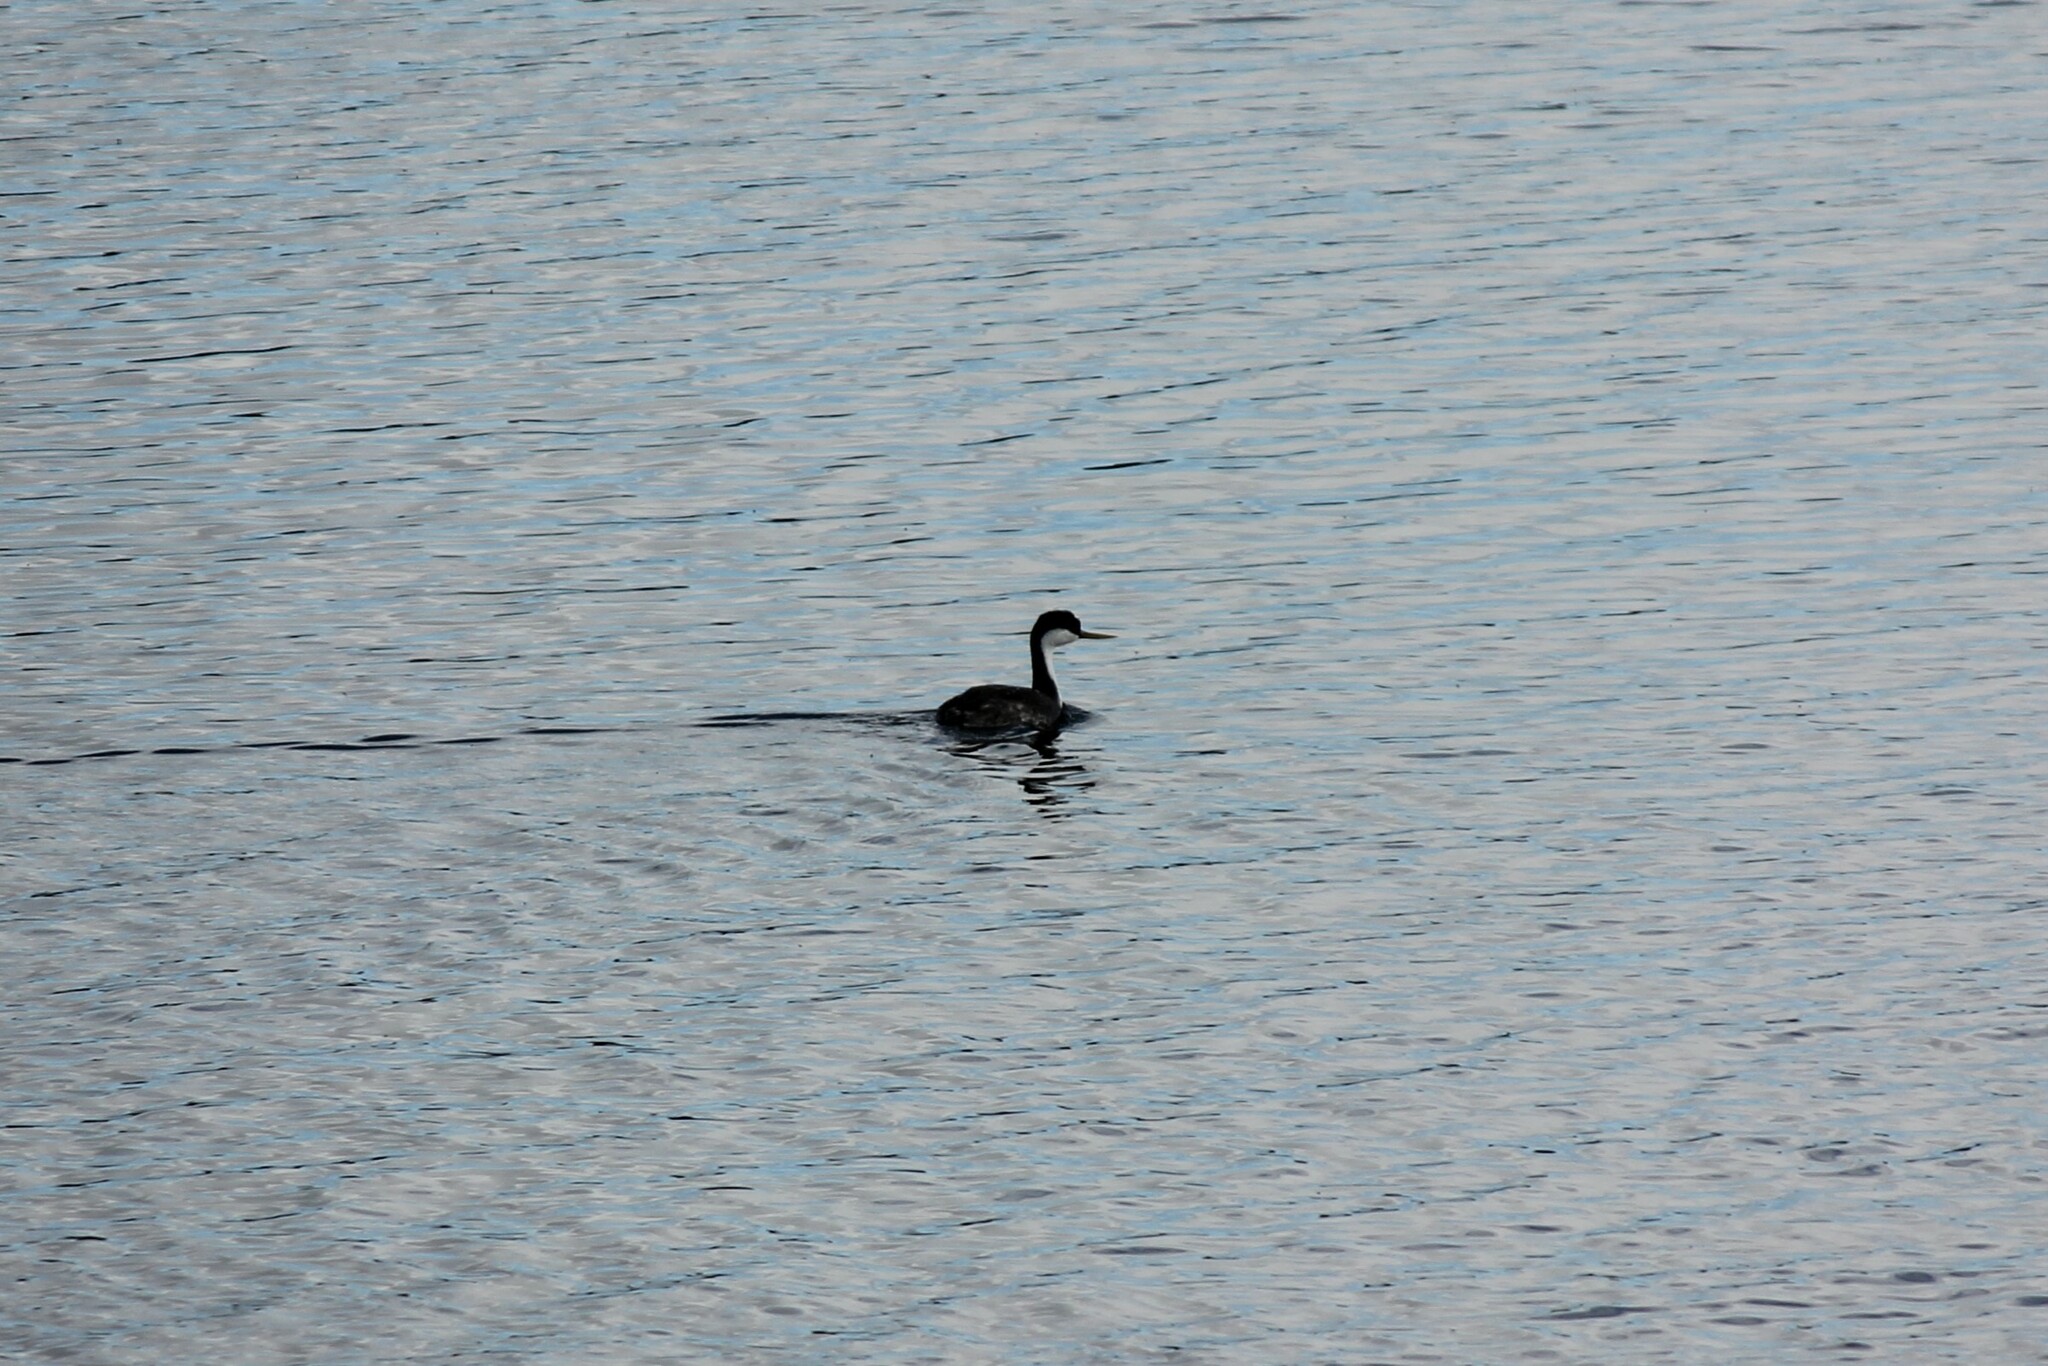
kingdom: Animalia
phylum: Chordata
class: Aves
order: Podicipediformes
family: Podicipedidae
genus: Aechmophorus
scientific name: Aechmophorus occidentalis
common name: Western grebe
